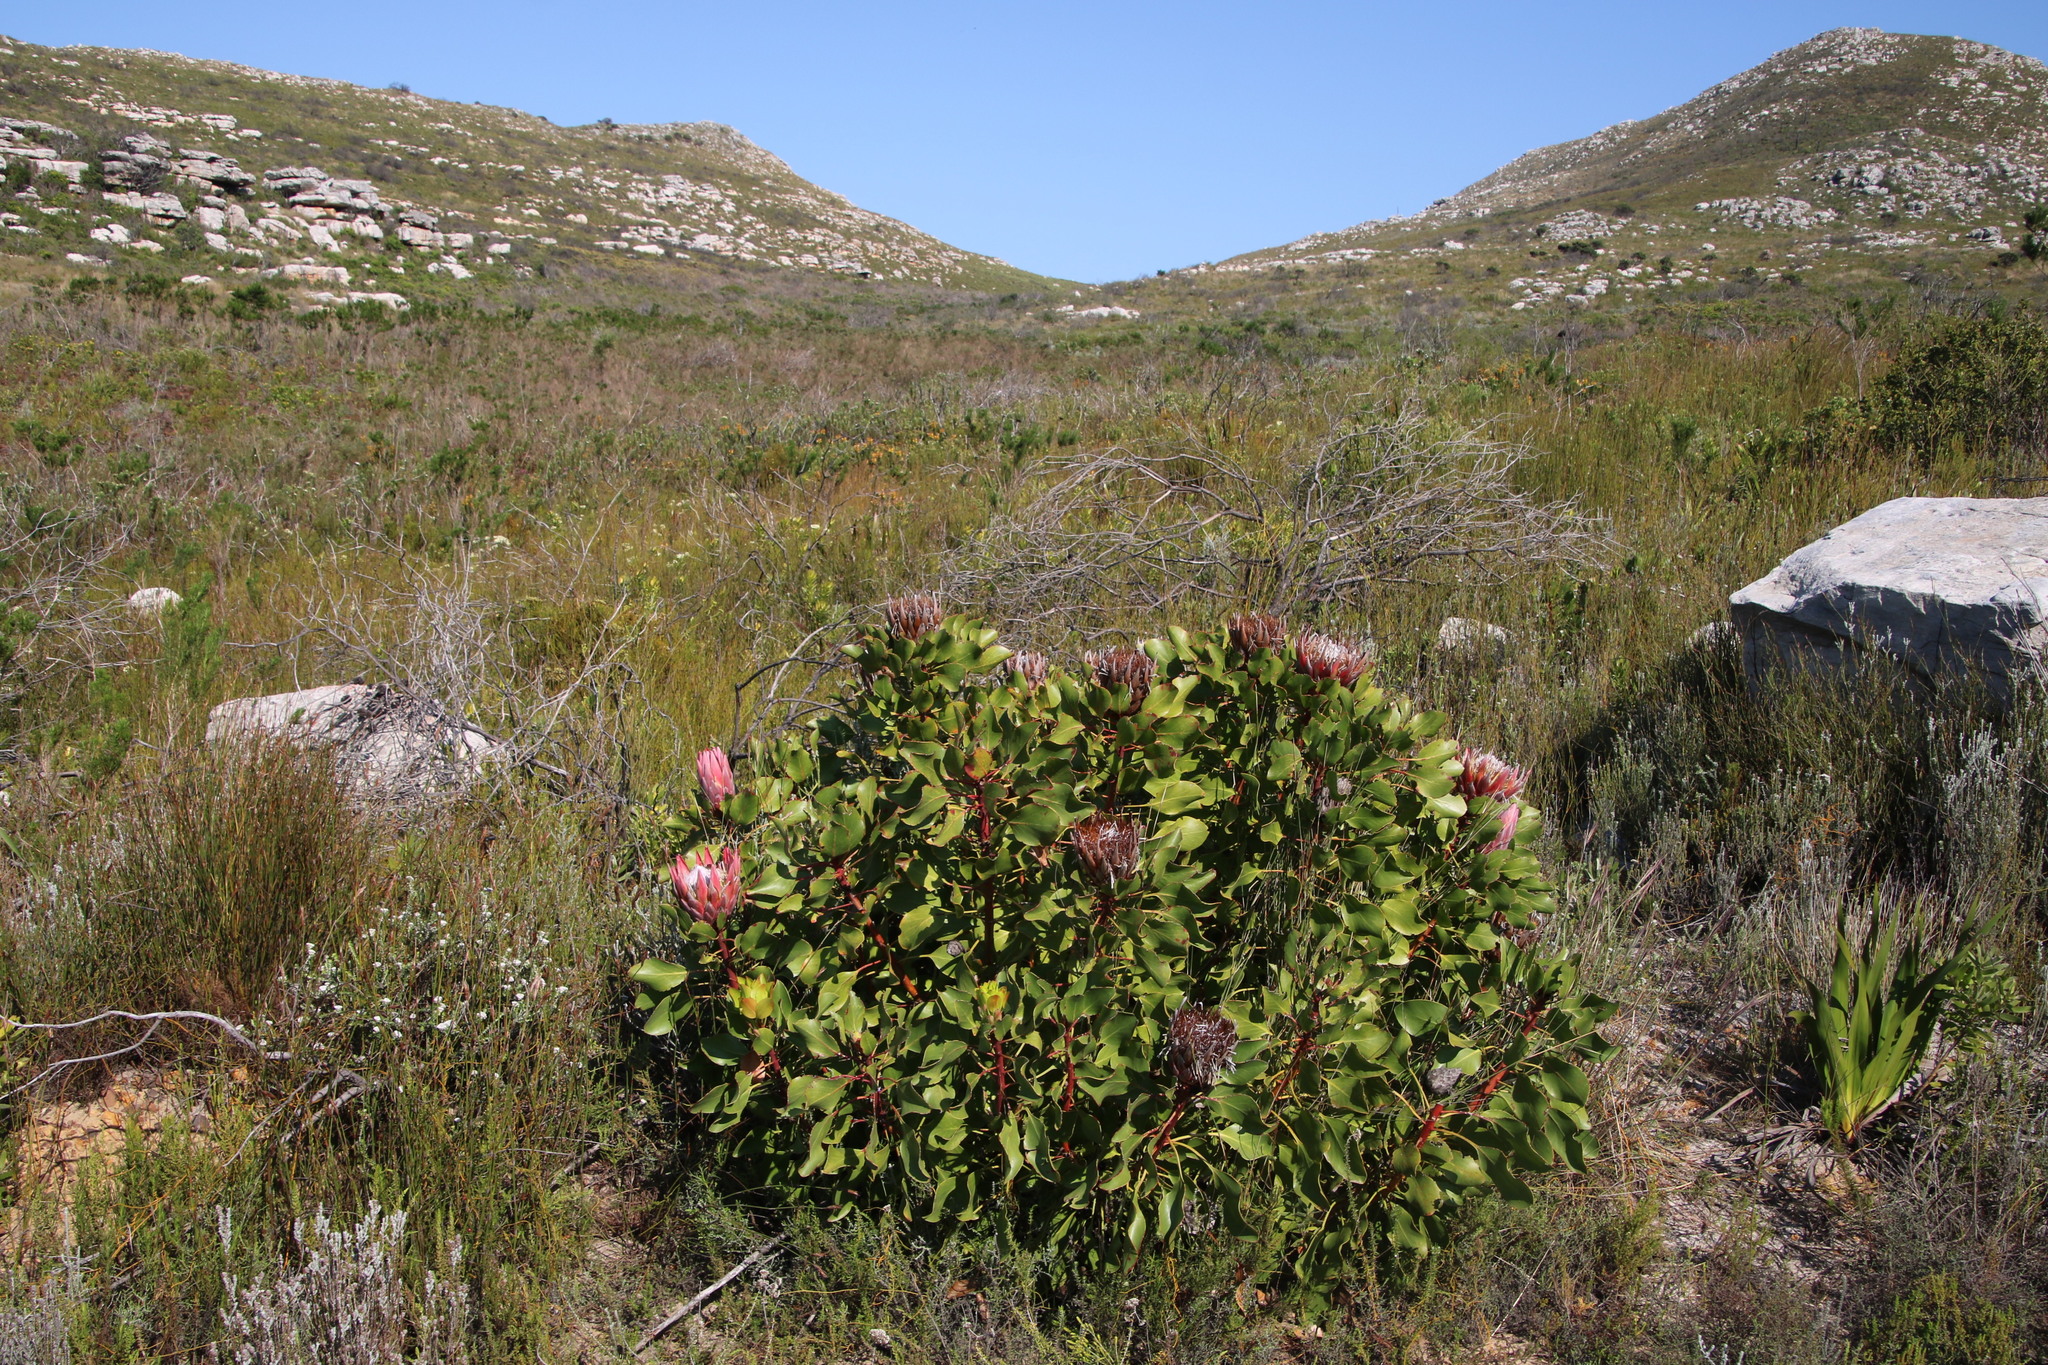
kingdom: Plantae
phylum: Tracheophyta
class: Magnoliopsida
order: Proteales
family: Proteaceae
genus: Protea
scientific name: Protea cynaroides
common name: King protea
